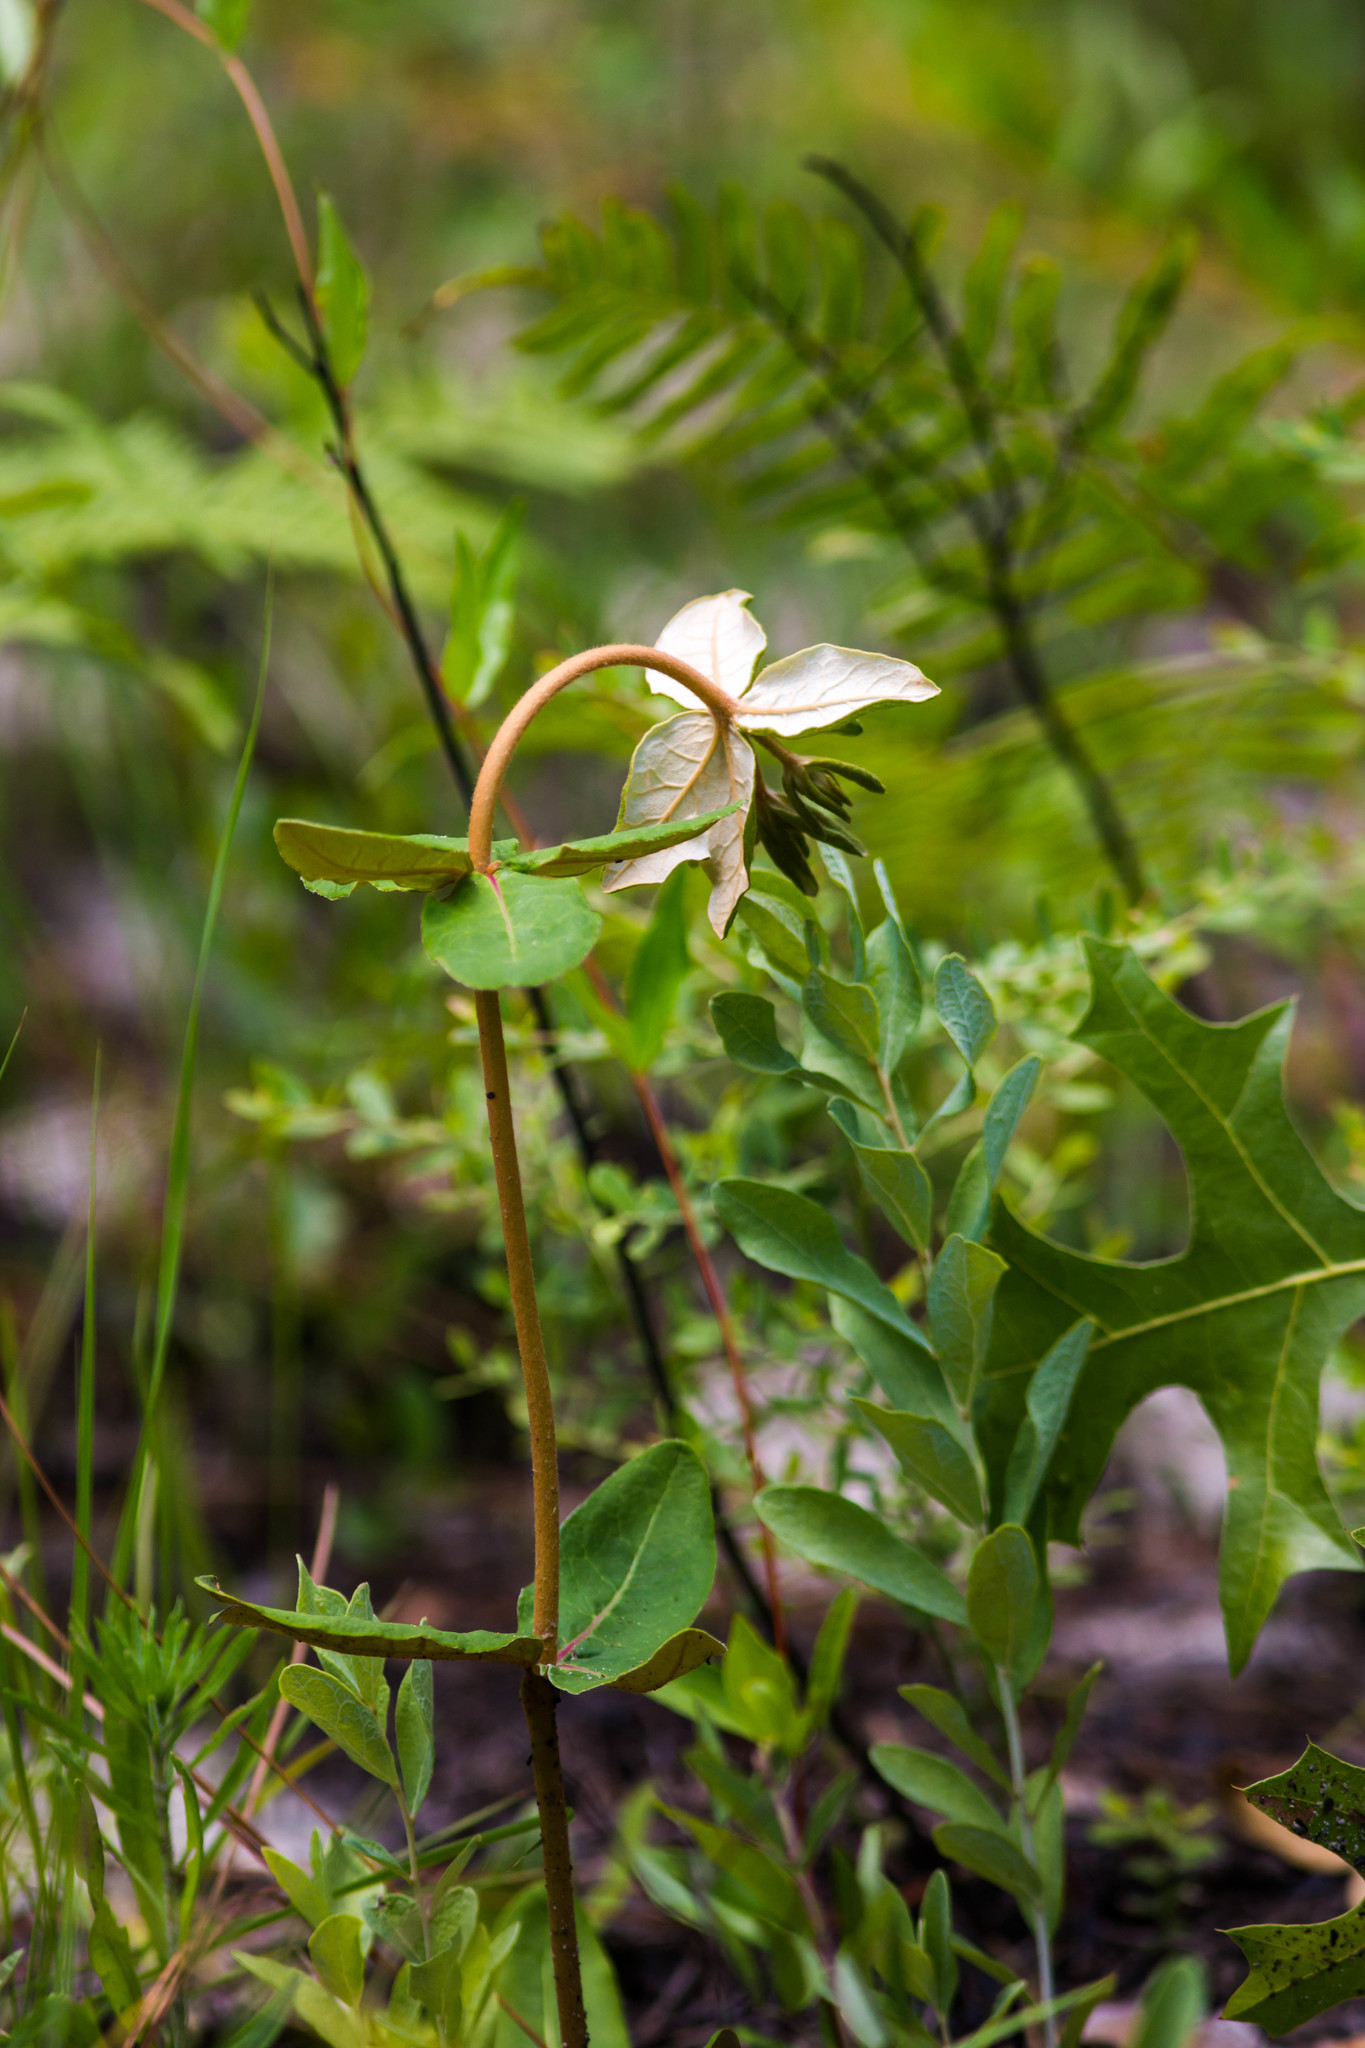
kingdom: Plantae
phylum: Tracheophyta
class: Magnoliopsida
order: Caryophyllales
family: Polygonaceae
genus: Eriogonum
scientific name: Eriogonum tomentosum
